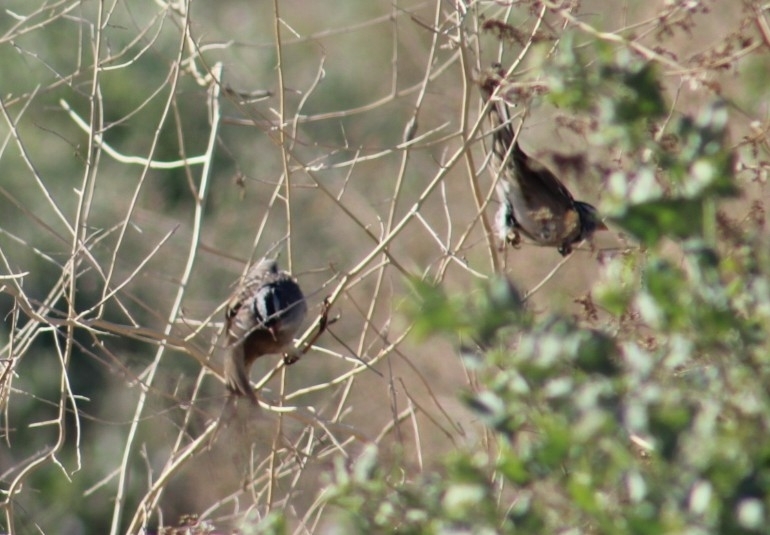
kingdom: Animalia
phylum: Chordata
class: Aves
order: Passeriformes
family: Passerellidae
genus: Zonotrichia
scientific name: Zonotrichia leucophrys
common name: White-crowned sparrow
